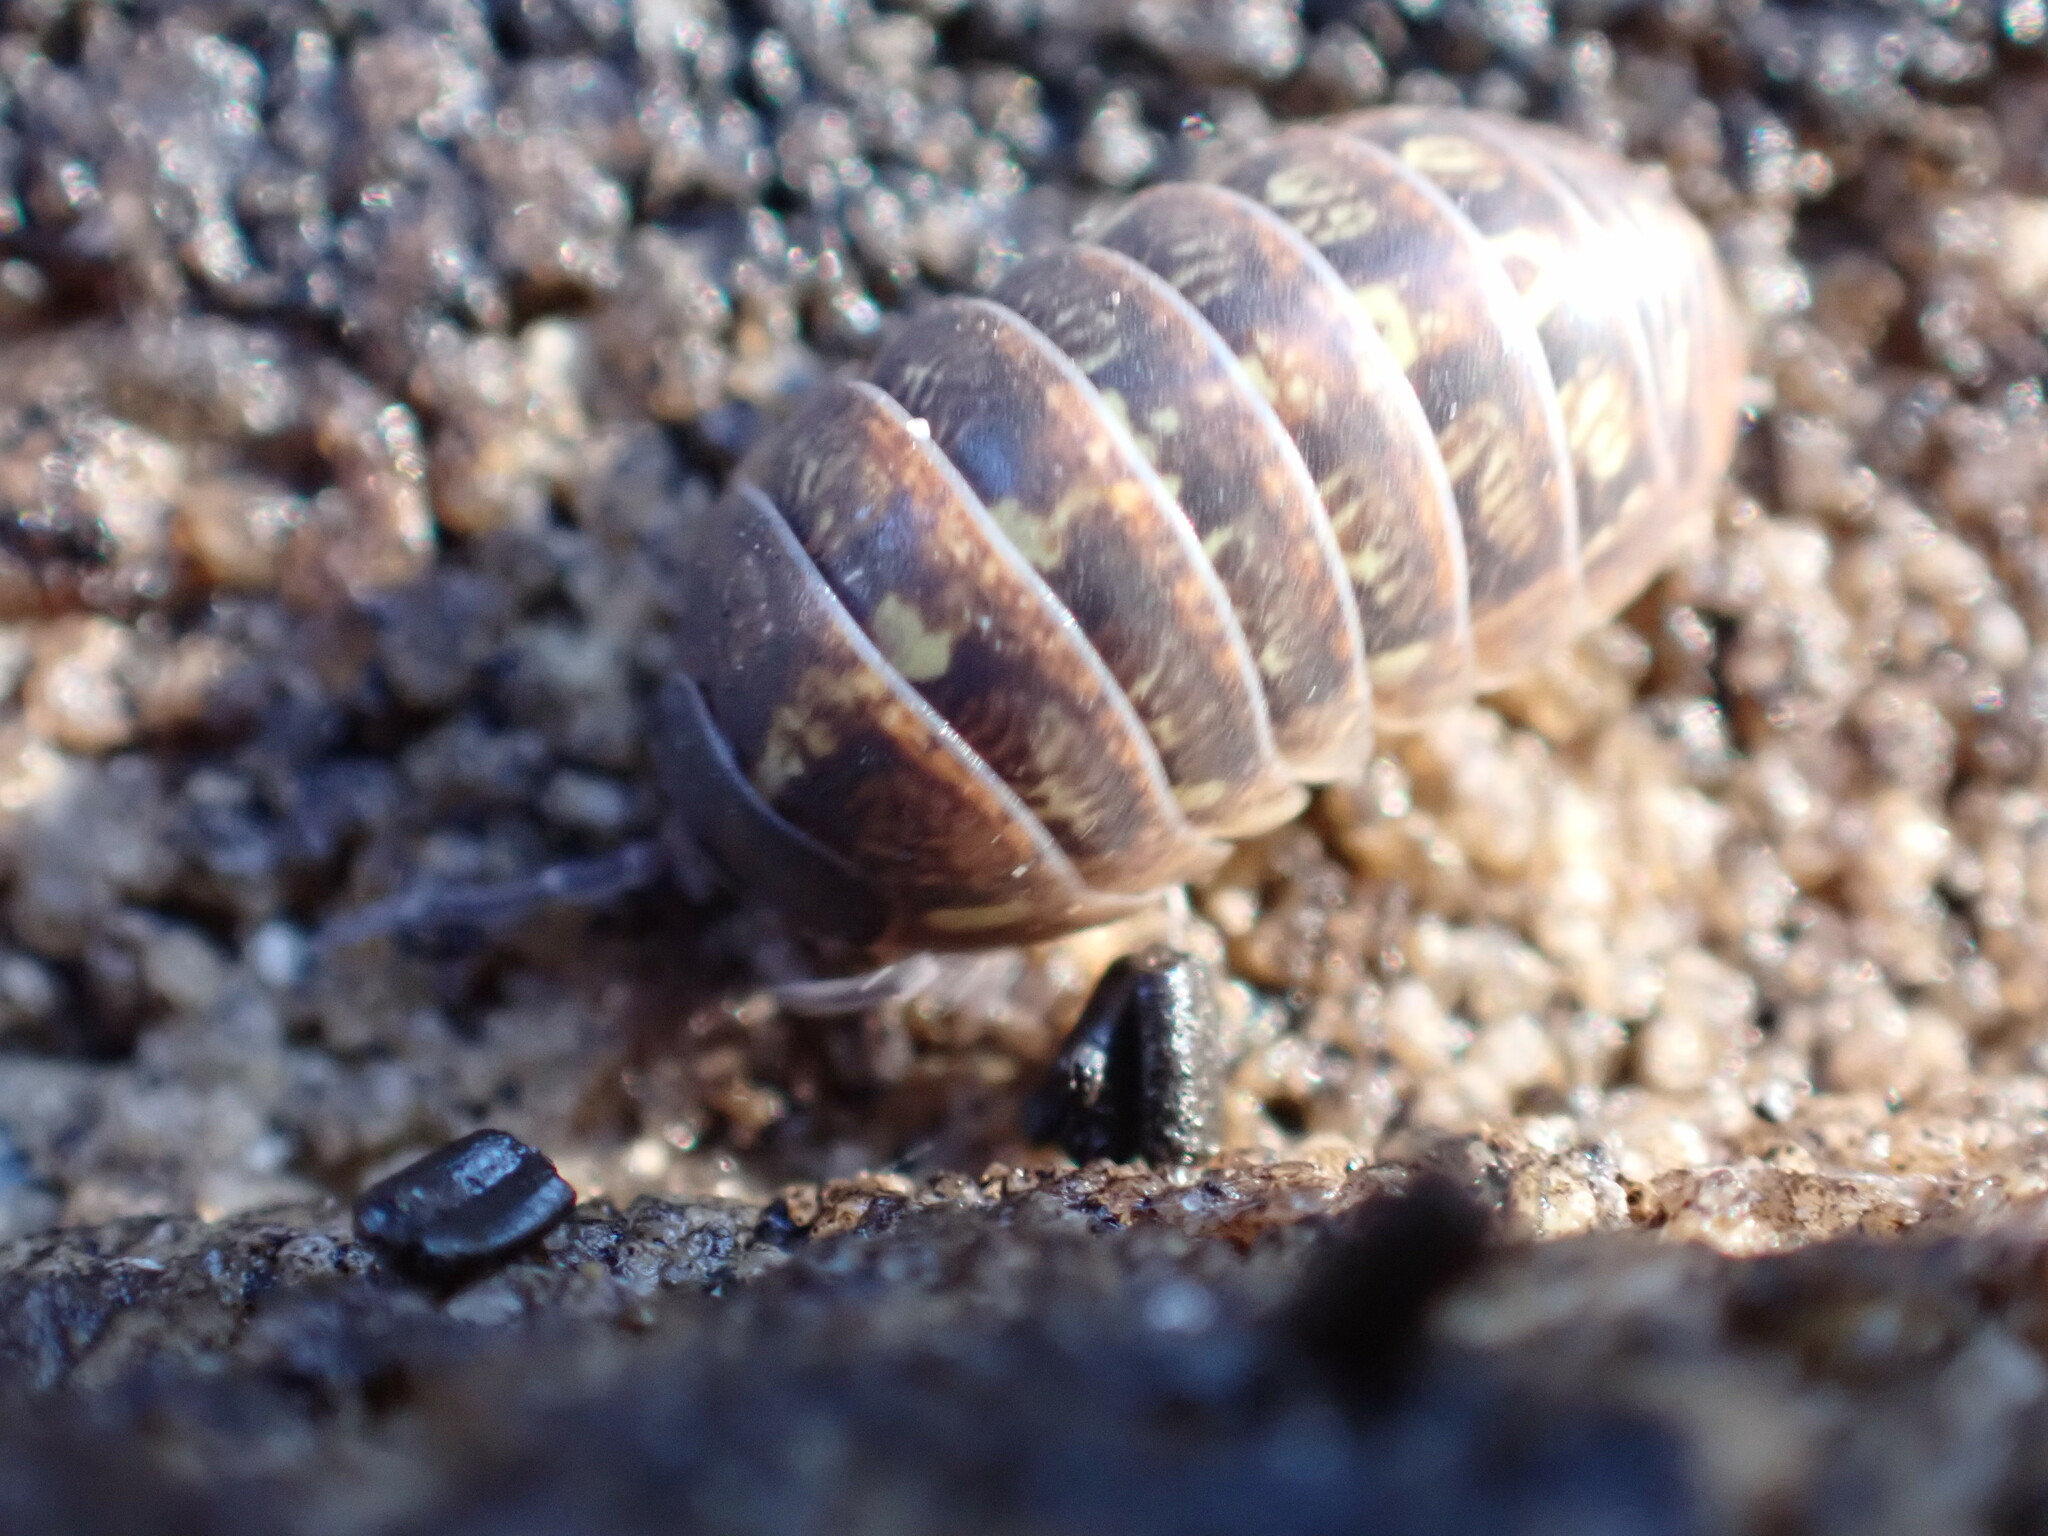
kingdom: Animalia
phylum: Arthropoda
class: Malacostraca
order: Isopoda
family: Armadillidiidae
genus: Armadillidium
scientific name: Armadillidium vulgare
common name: Common pill woodlouse
